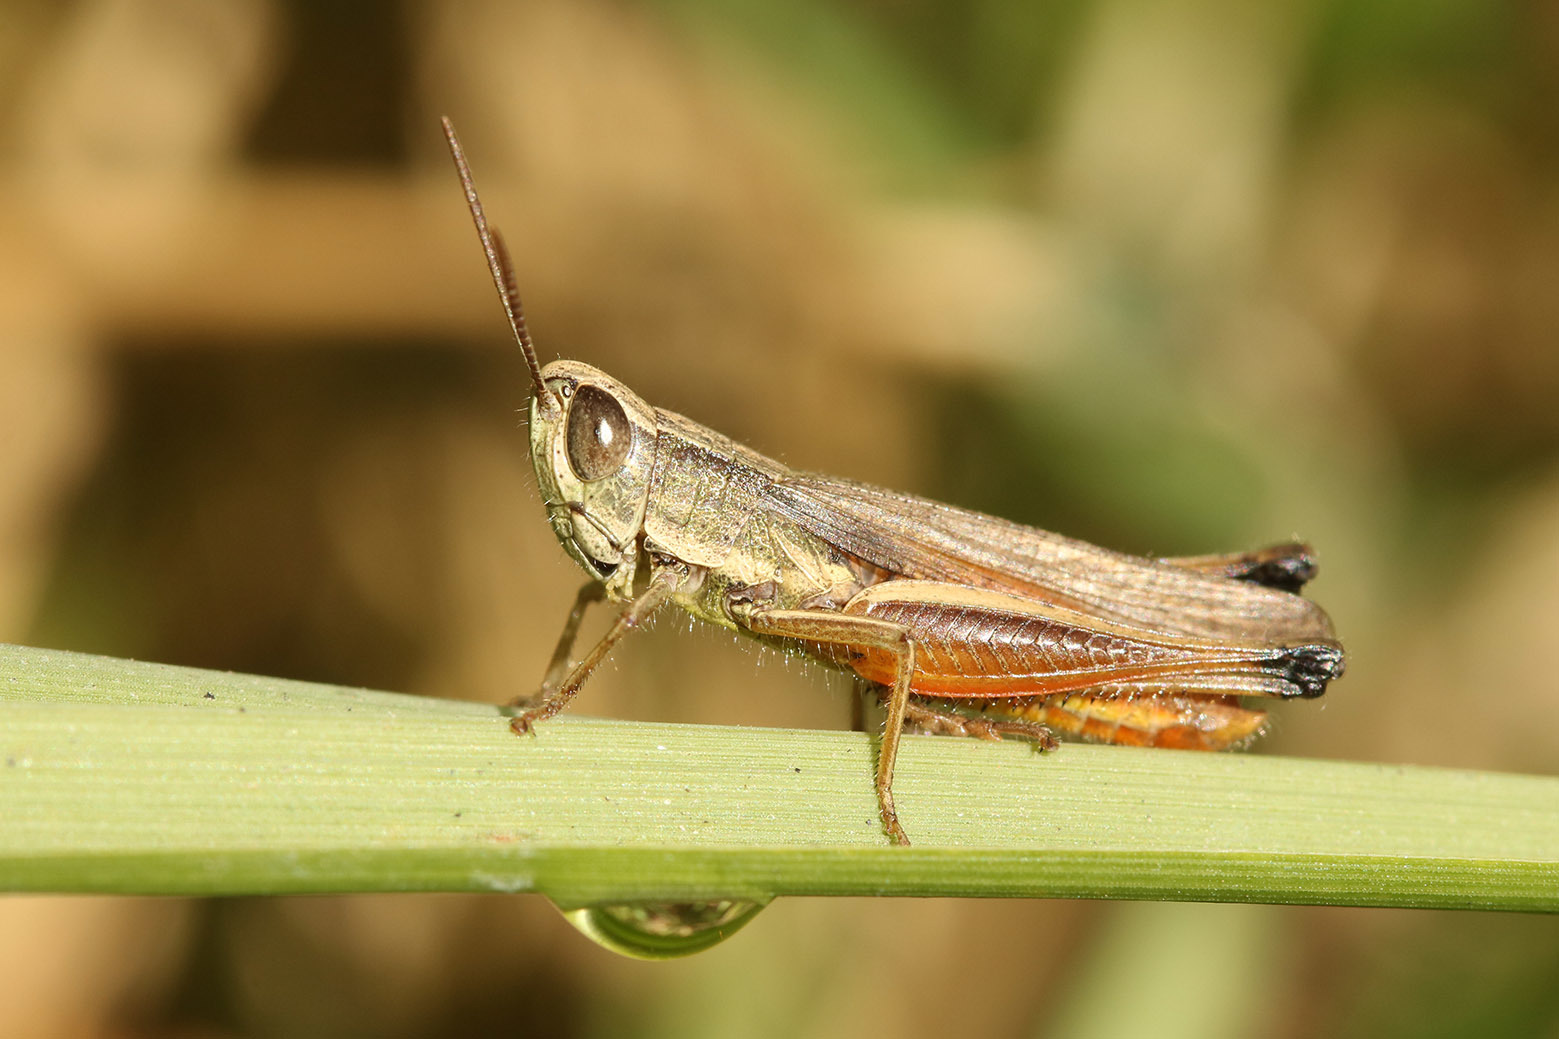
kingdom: Animalia
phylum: Arthropoda
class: Insecta
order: Orthoptera
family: Acrididae
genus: Amblytropidia
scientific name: Amblytropidia australis
